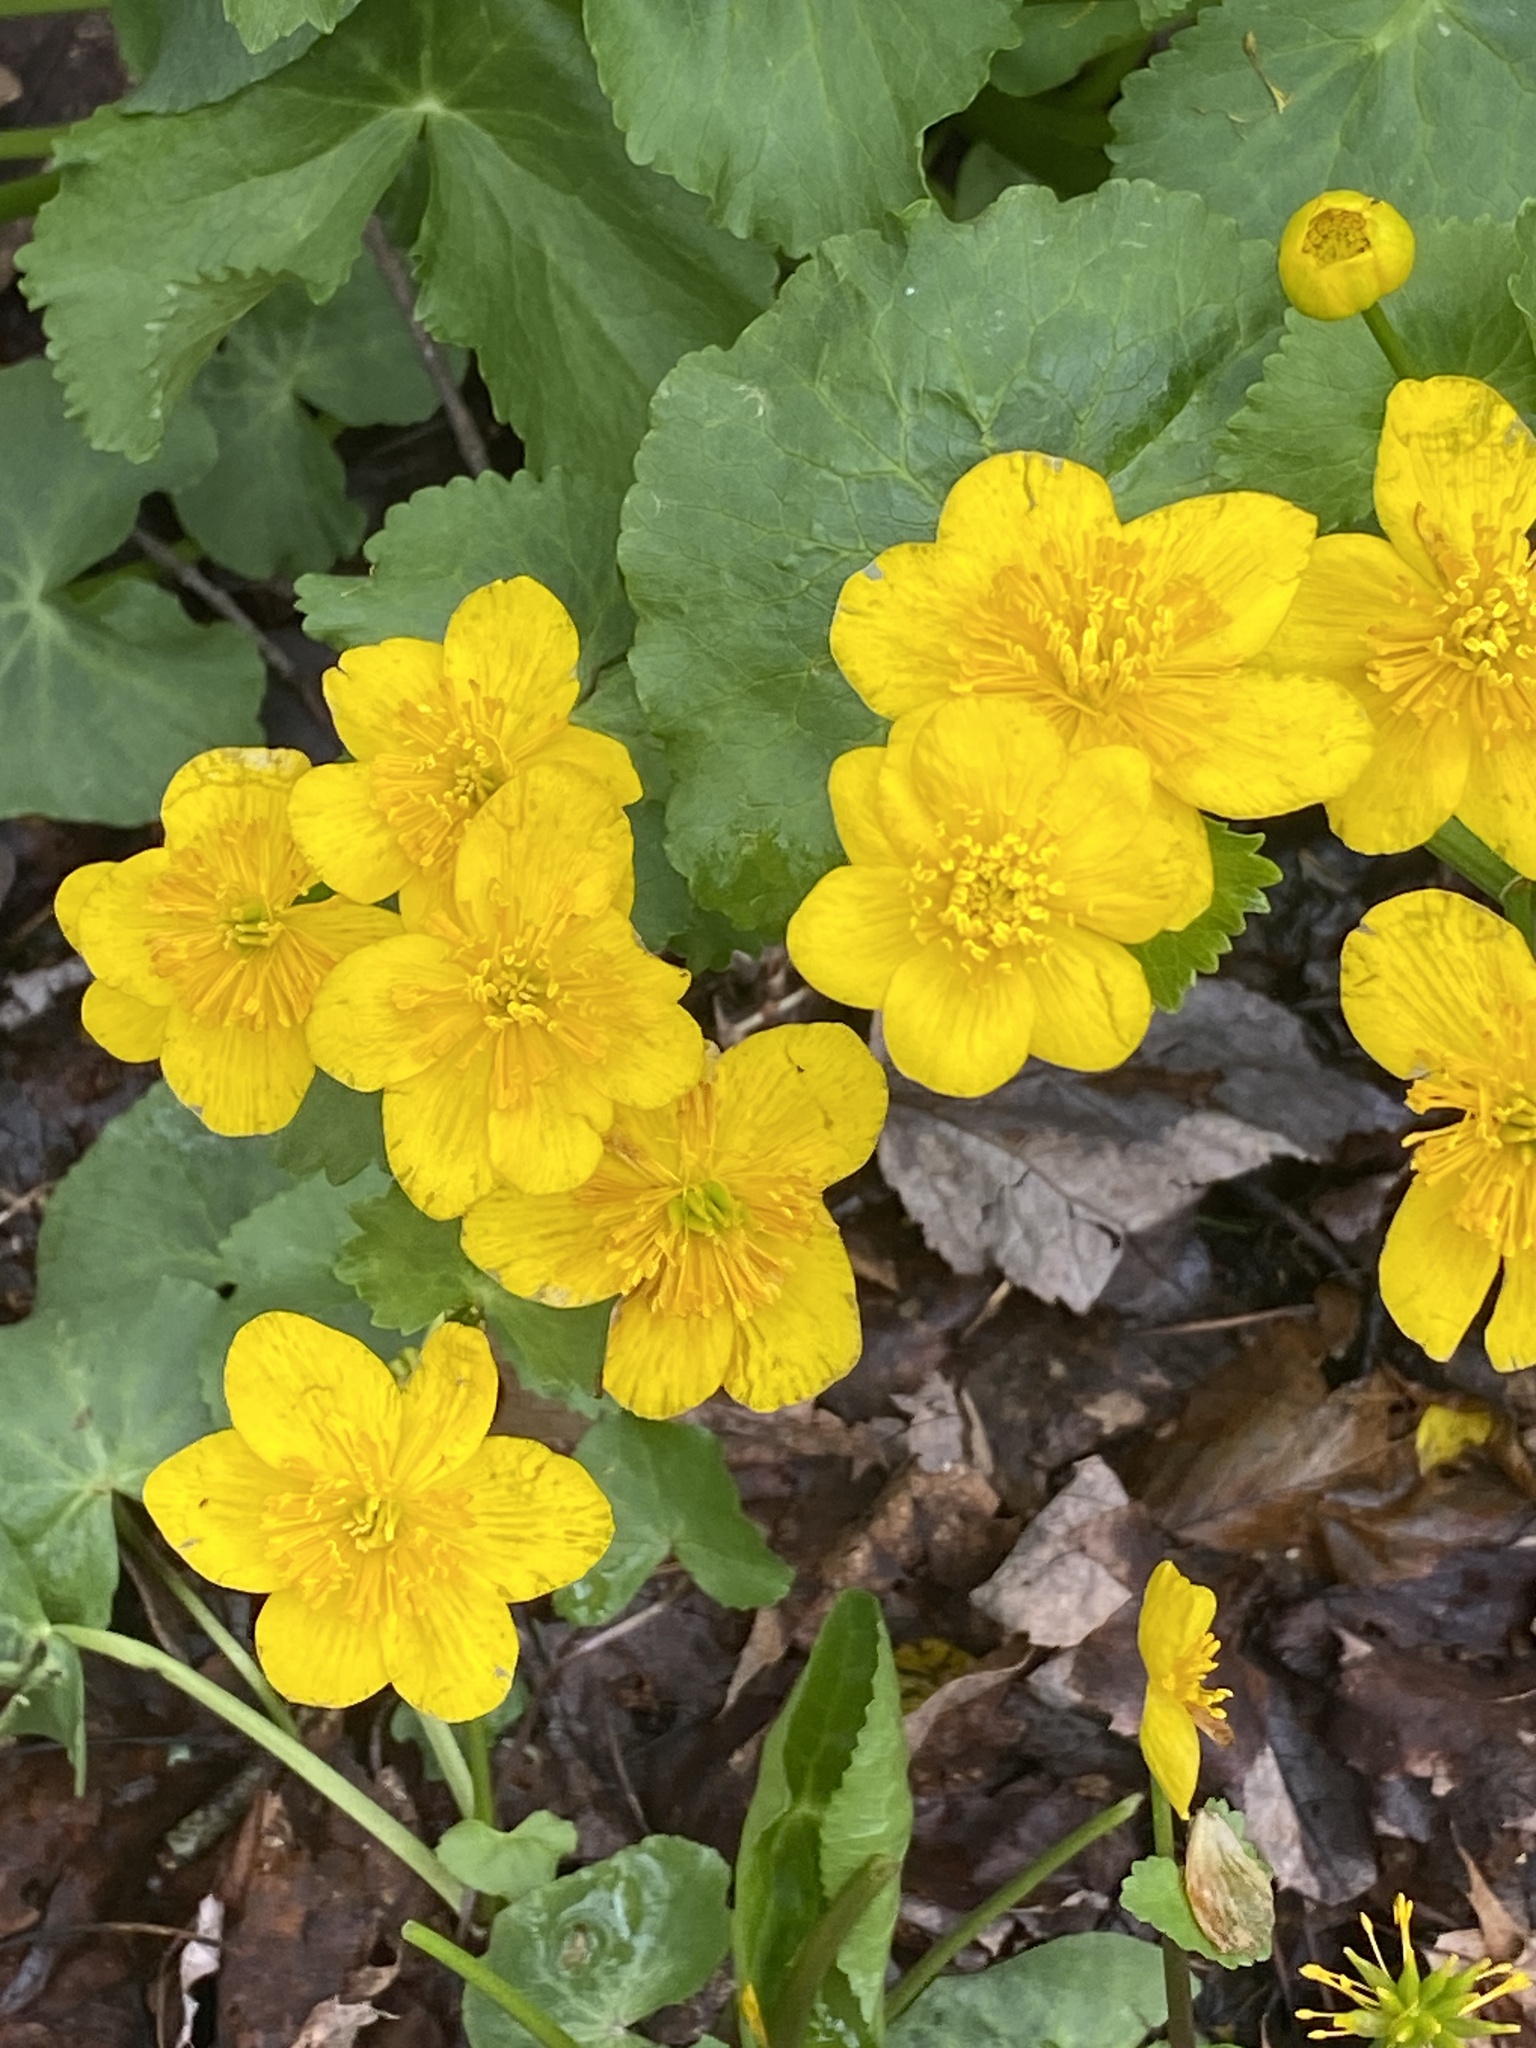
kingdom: Plantae
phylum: Tracheophyta
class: Magnoliopsida
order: Ranunculales
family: Ranunculaceae
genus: Caltha
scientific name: Caltha palustris
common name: Marsh marigold
